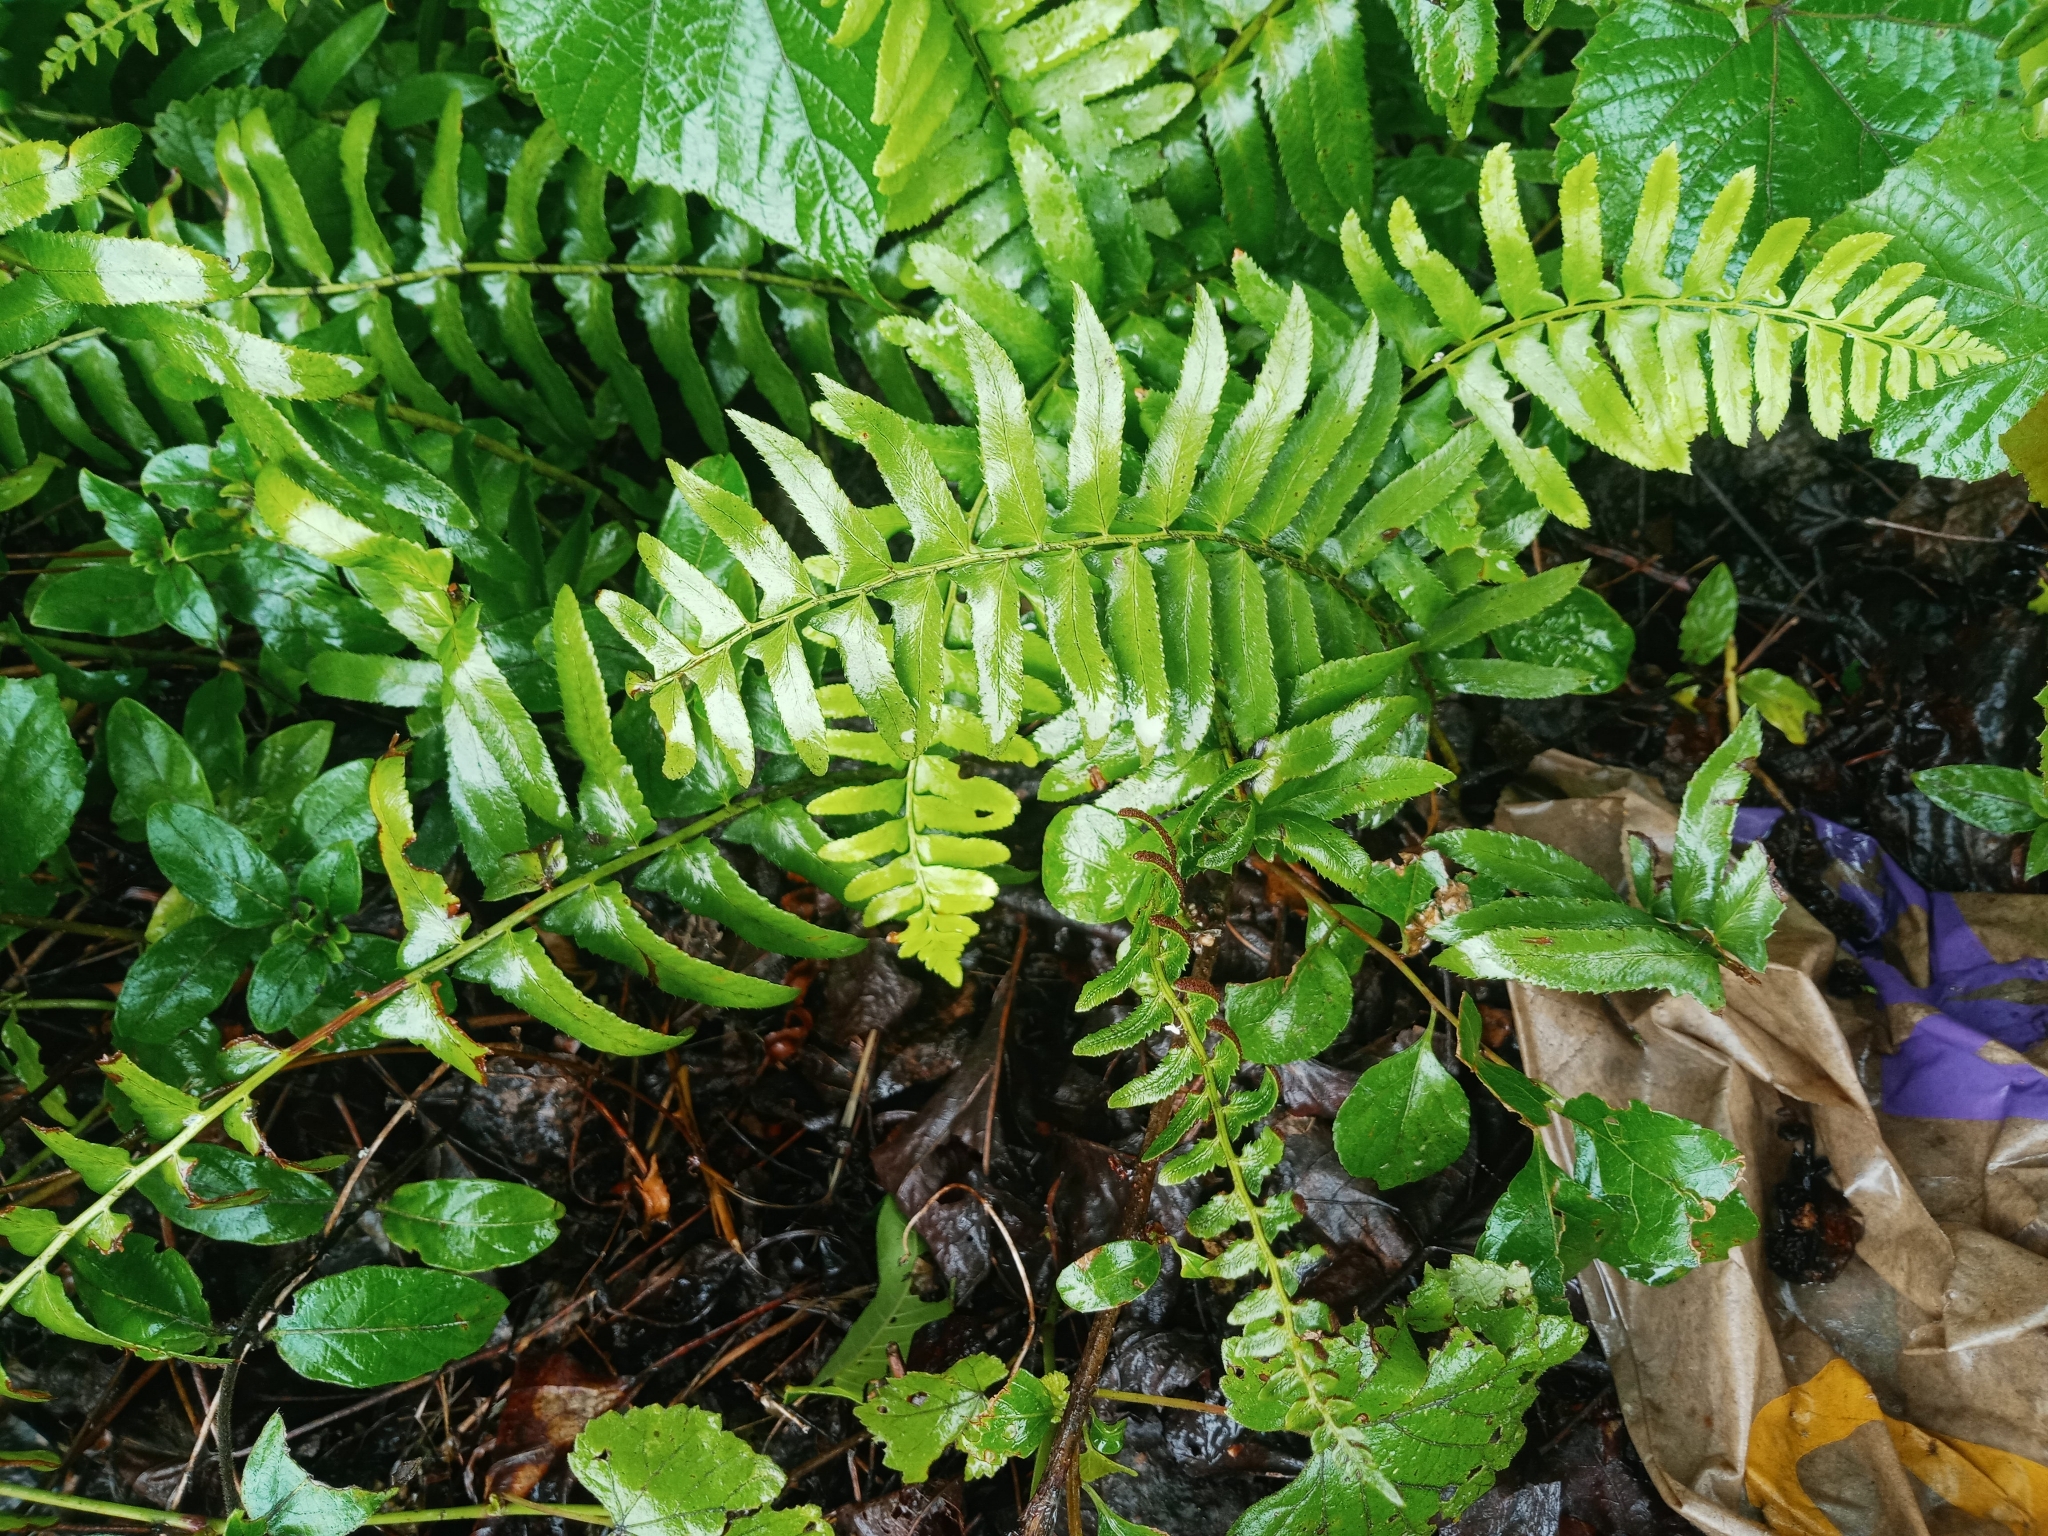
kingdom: Plantae
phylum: Tracheophyta
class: Polypodiopsida
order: Polypodiales
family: Dryopteridaceae
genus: Polystichum
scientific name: Polystichum acrostichoides
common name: Christmas fern
